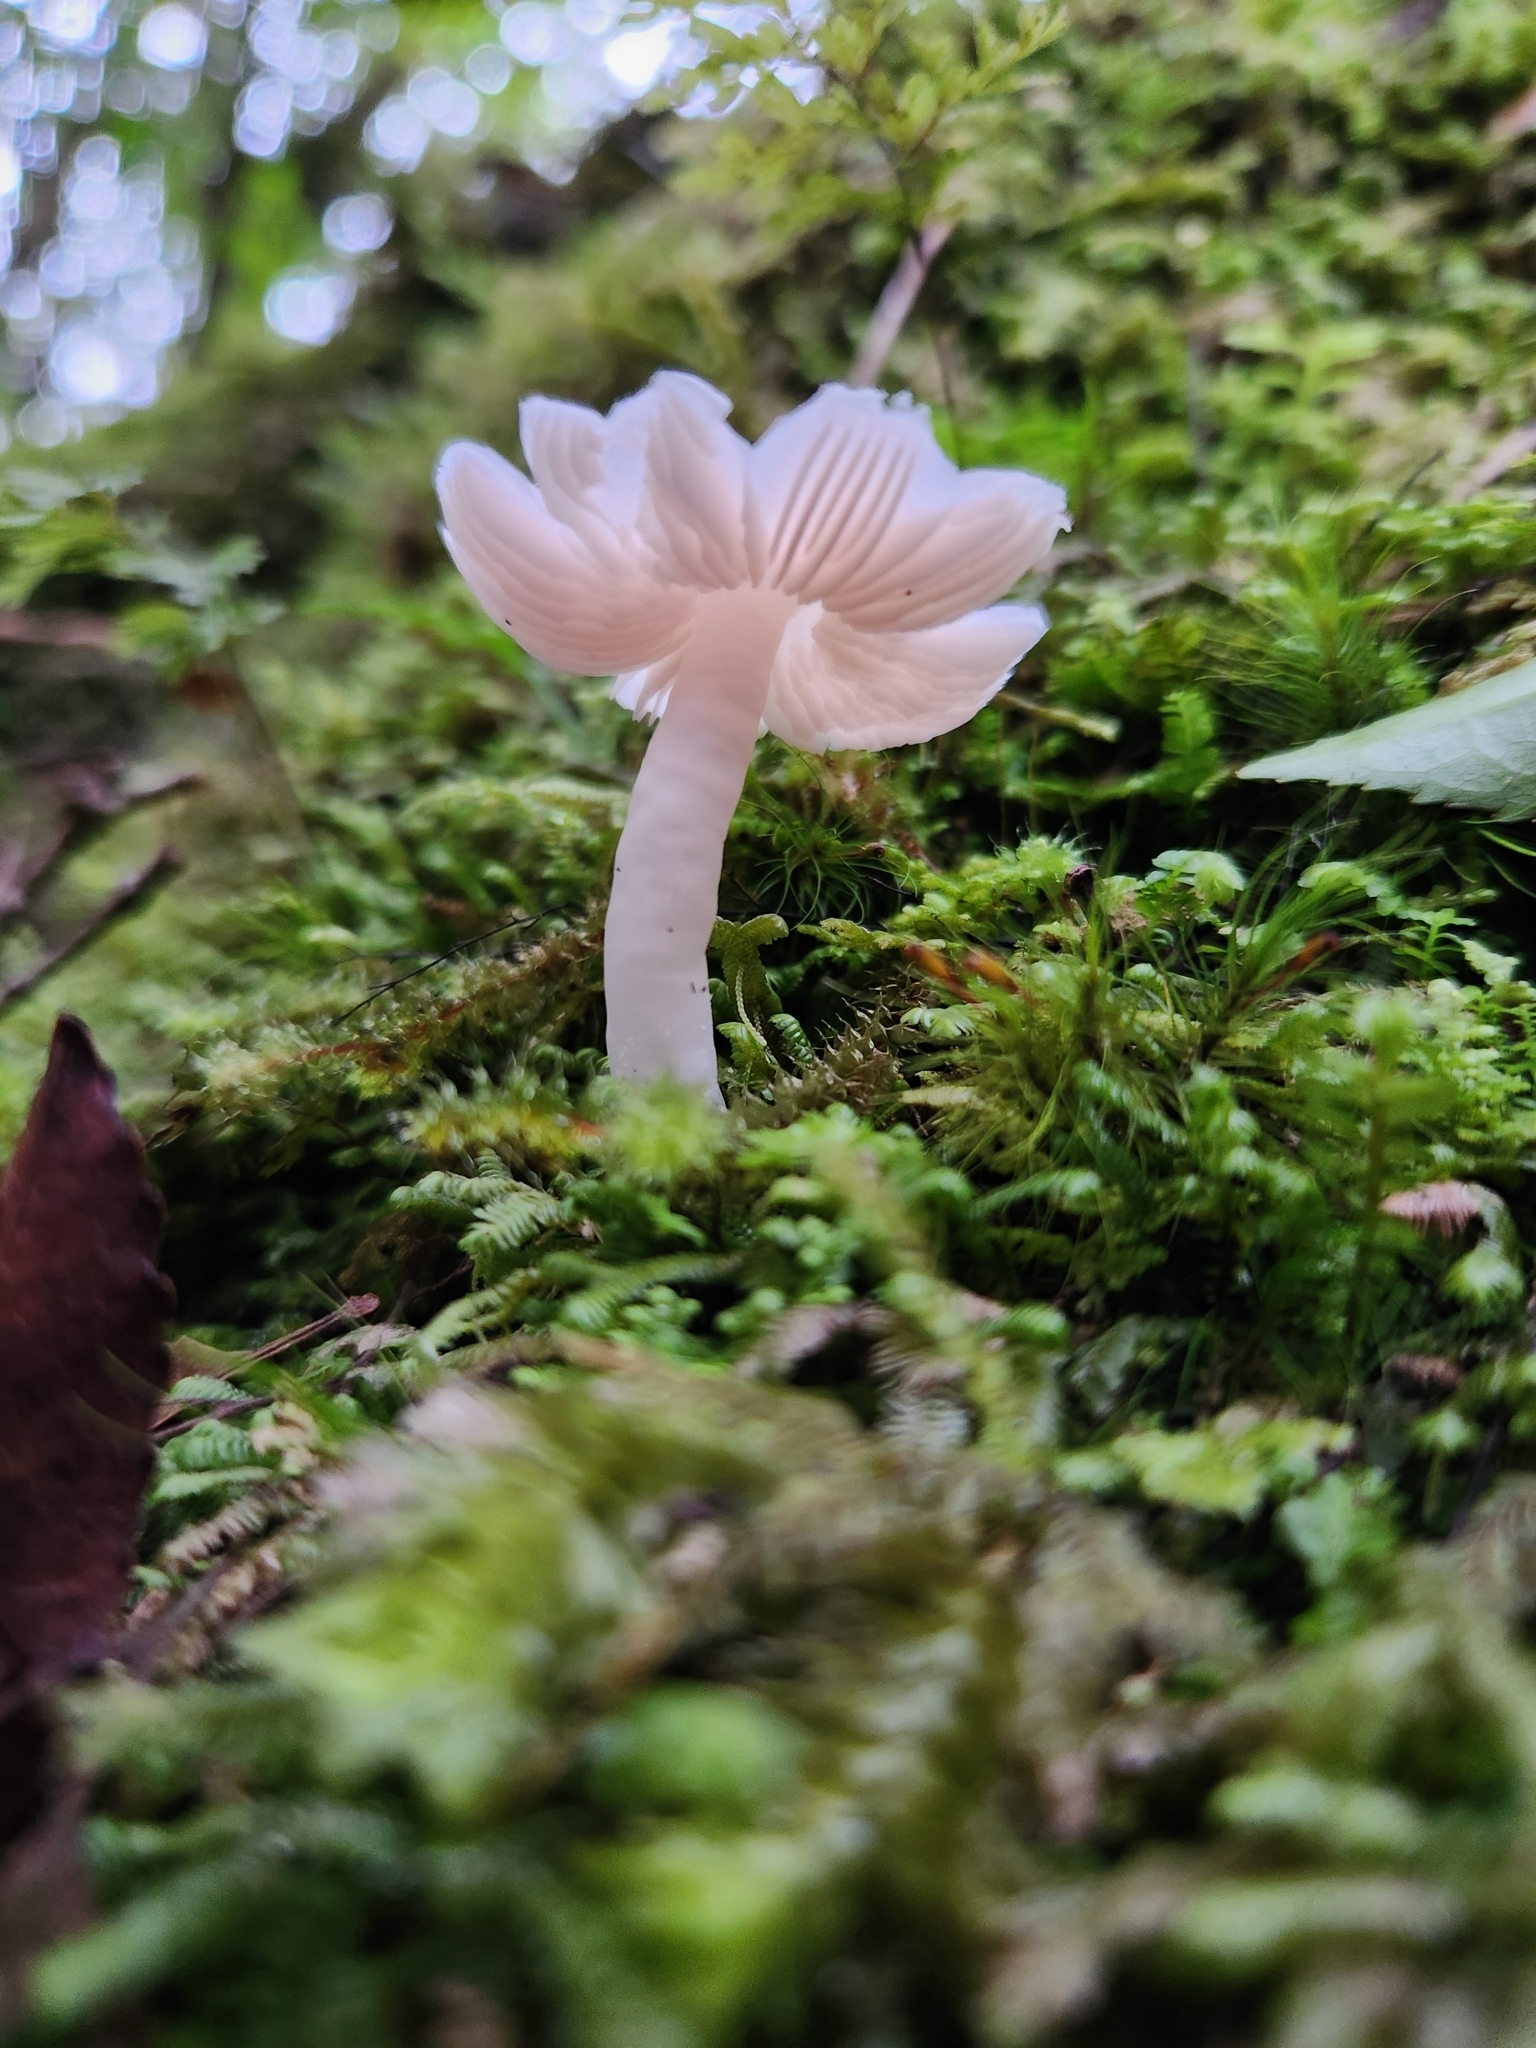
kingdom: Fungi
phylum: Basidiomycota
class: Agaricomycetes
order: Agaricales
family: Hygrophoraceae
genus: Humidicutis
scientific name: Humidicutis
